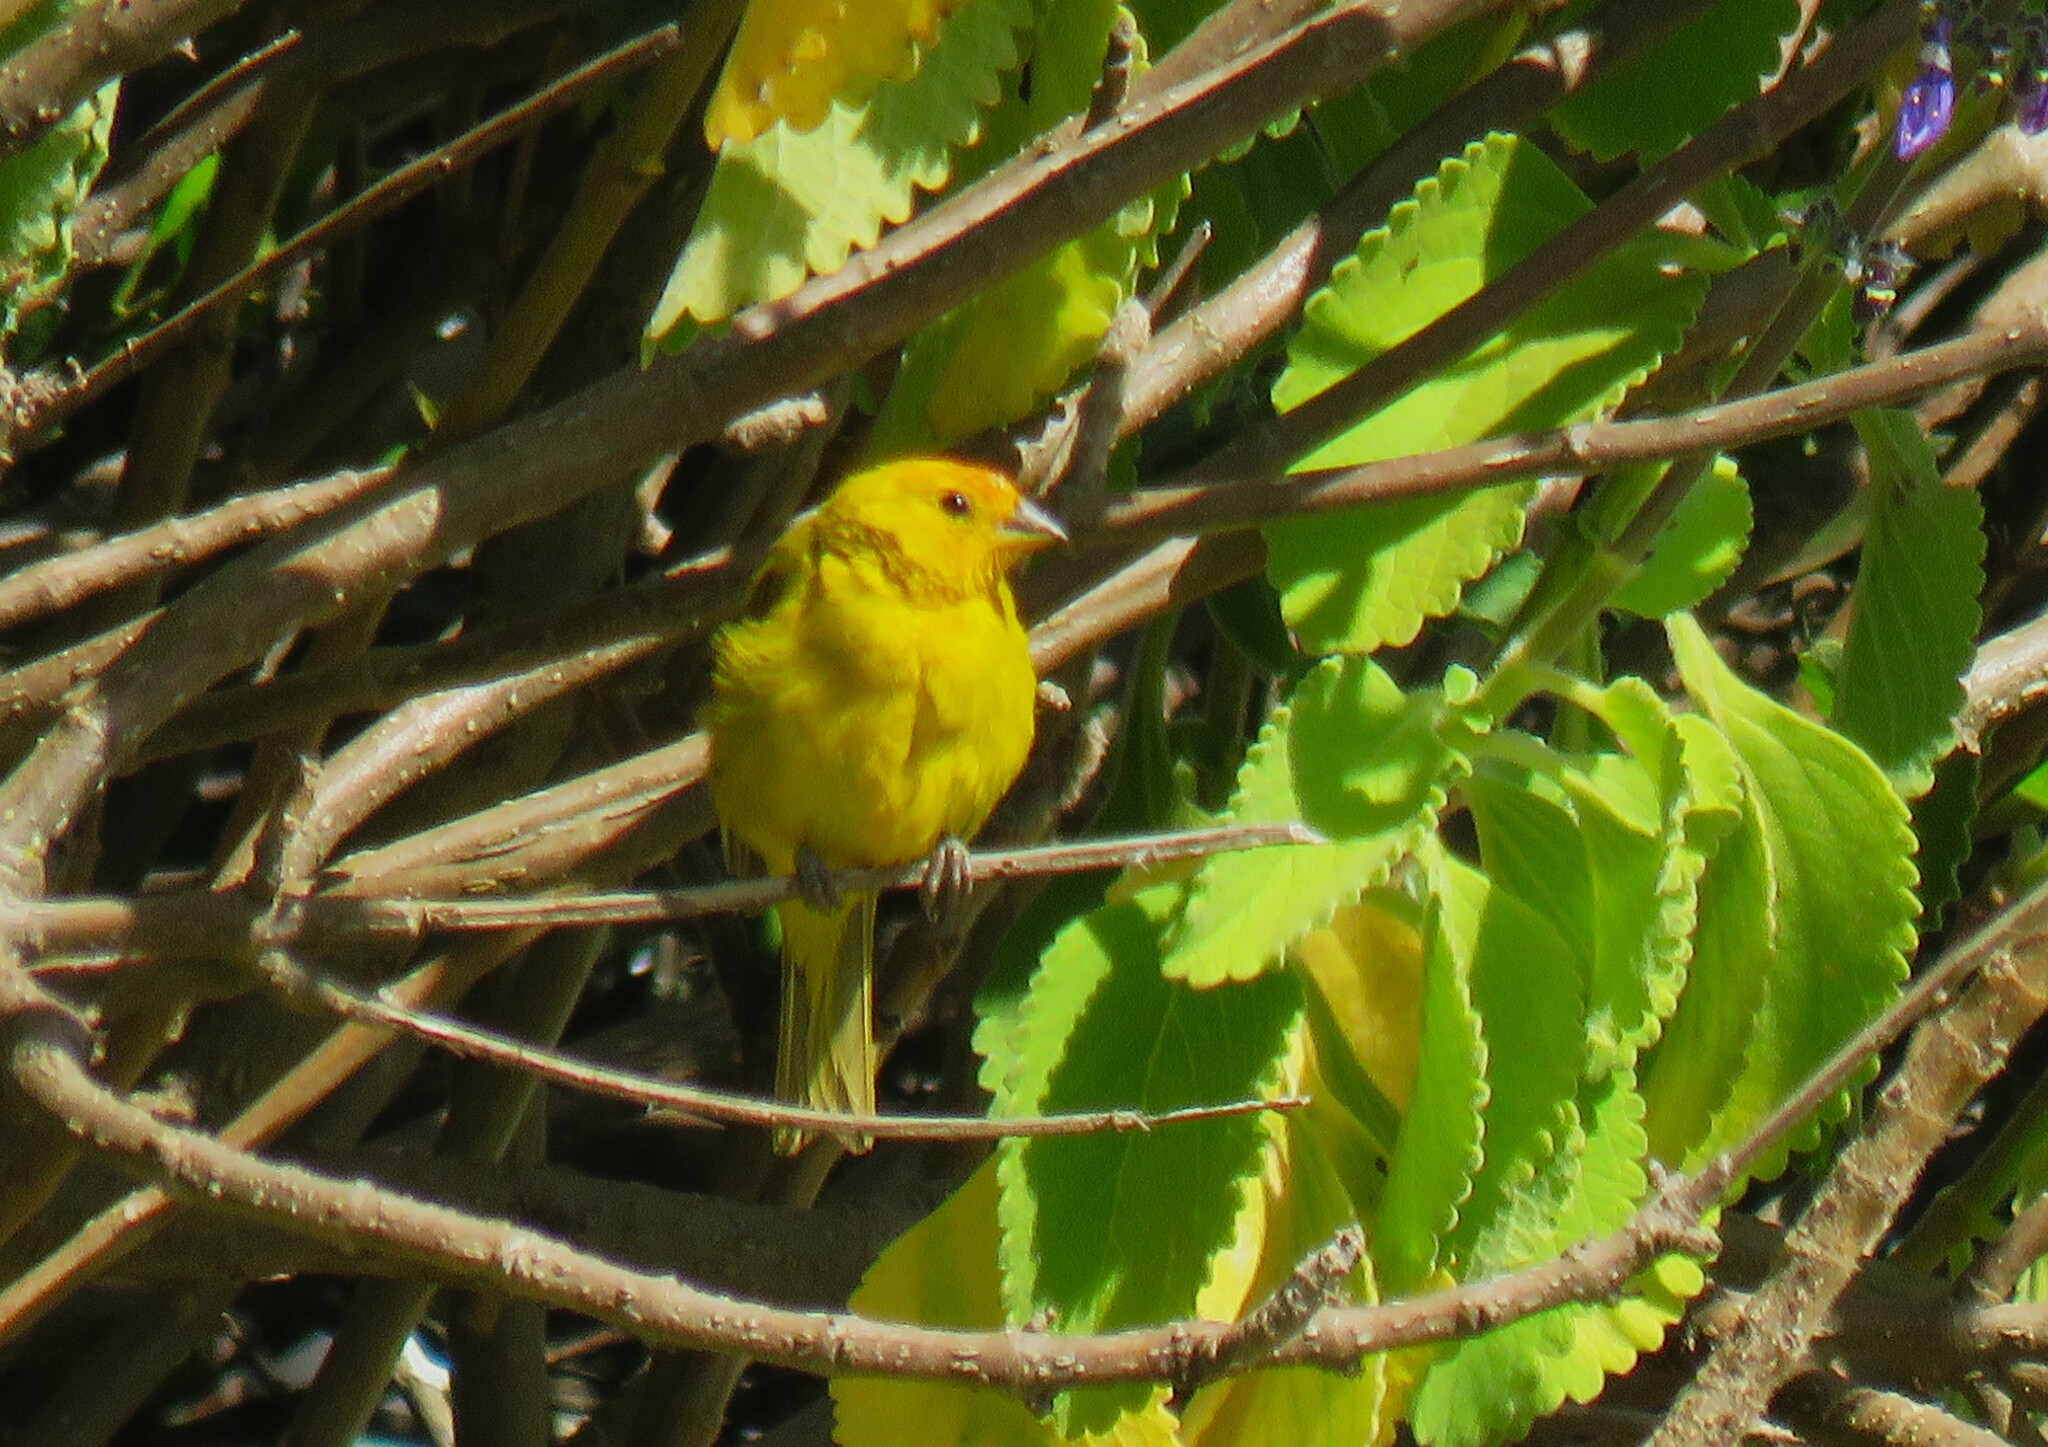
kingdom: Animalia
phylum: Chordata
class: Aves
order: Passeriformes
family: Thraupidae
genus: Sicalis
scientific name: Sicalis flaveola
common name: Saffron finch
